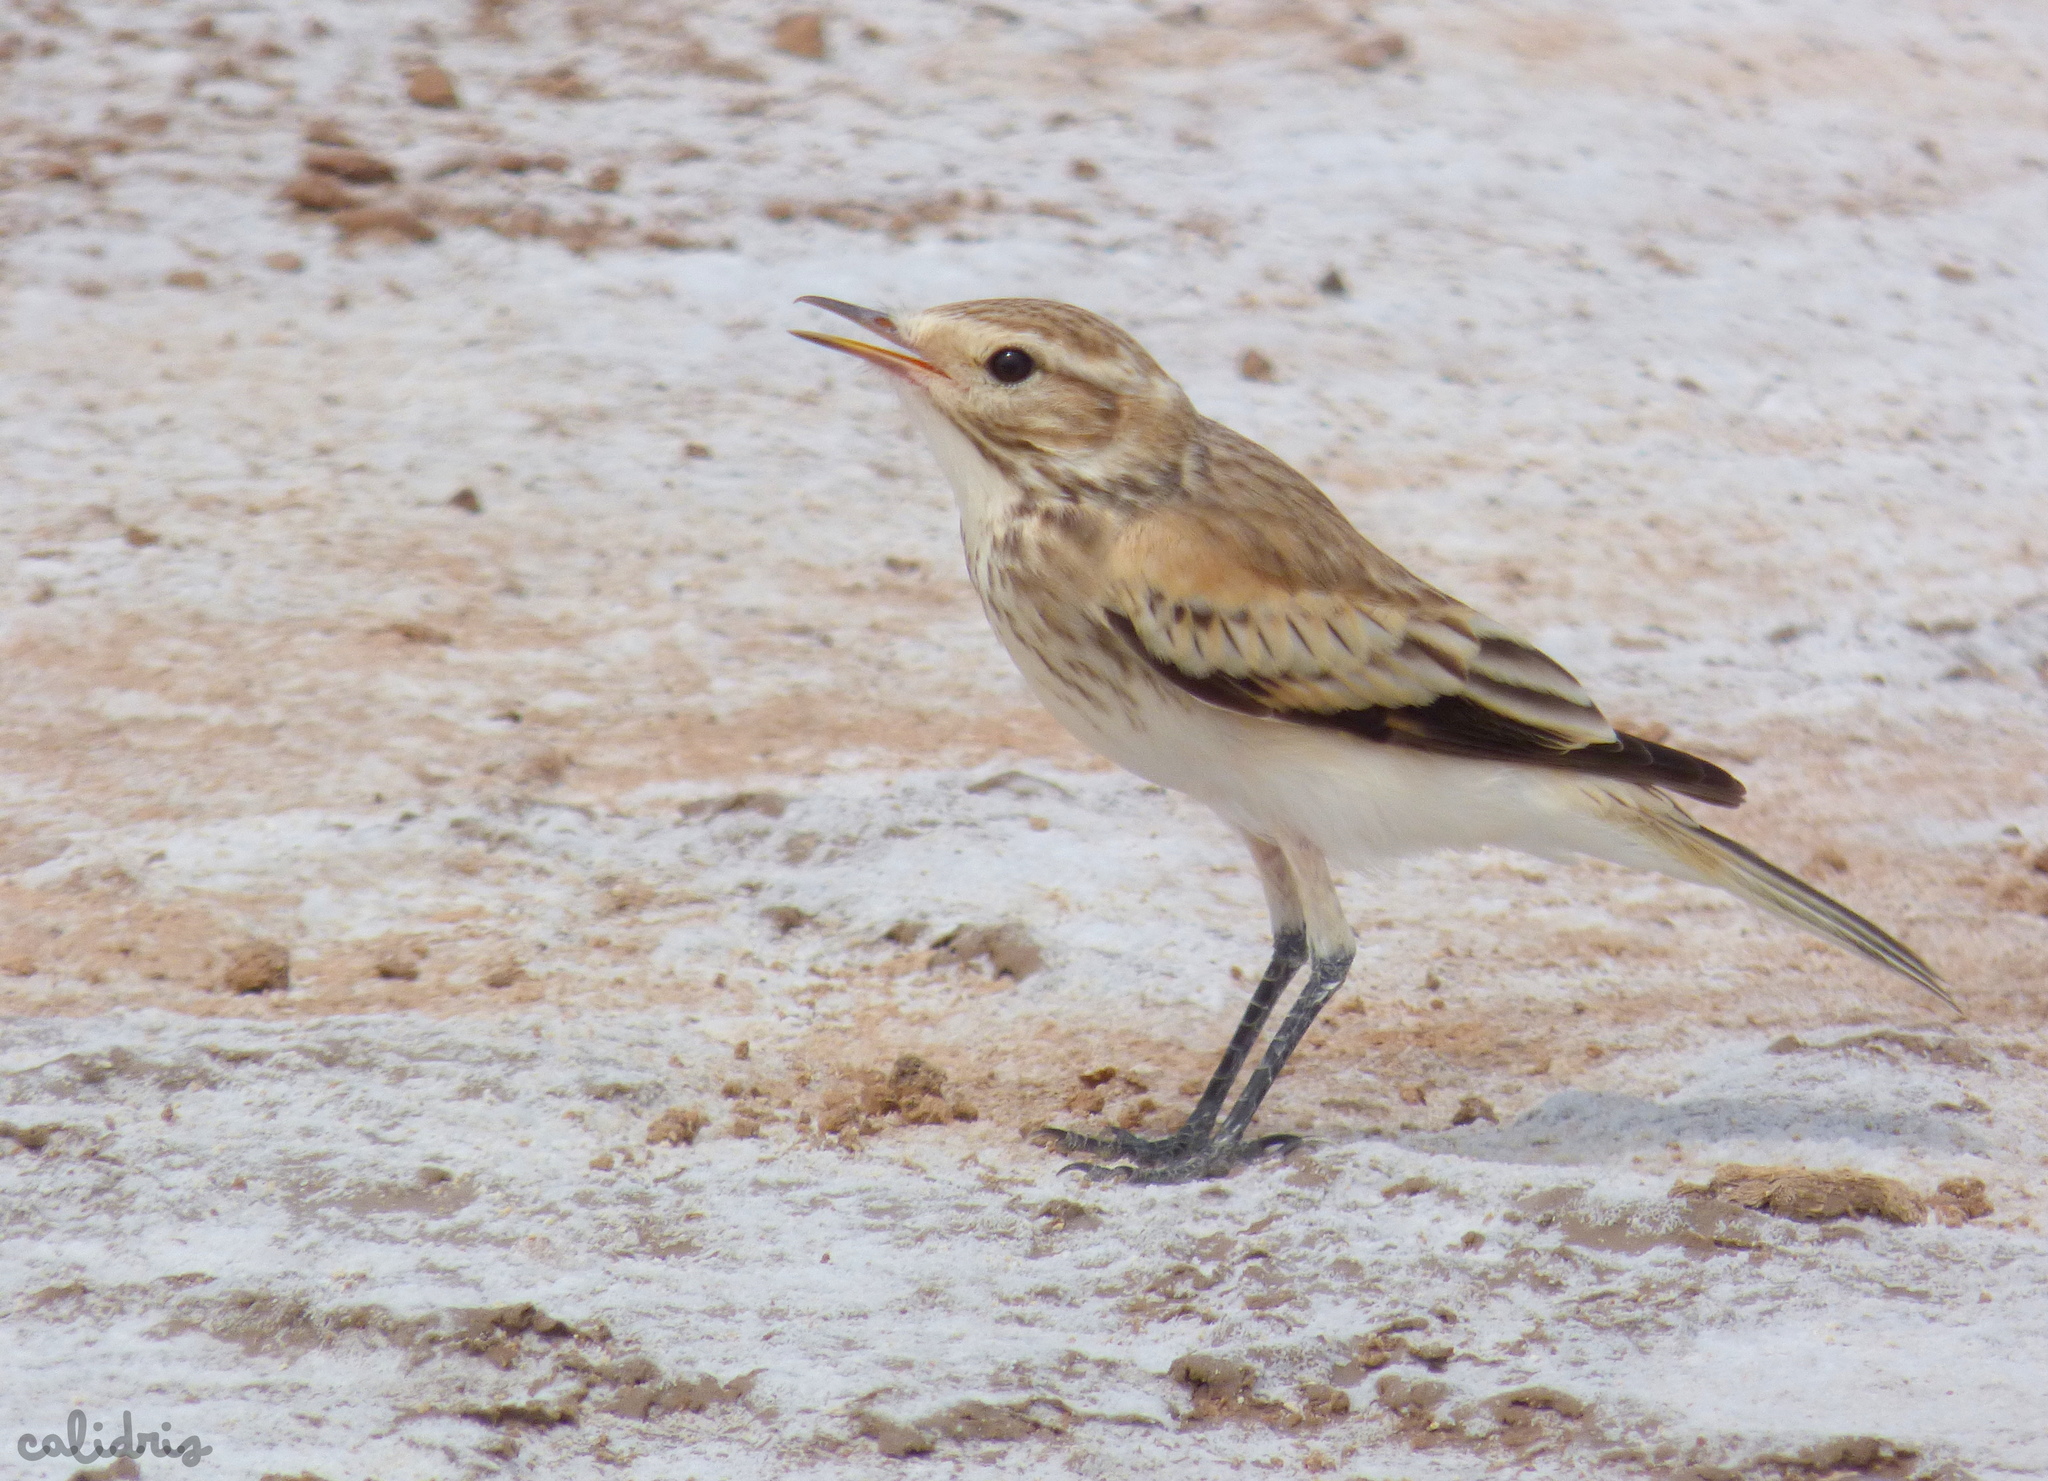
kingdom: Animalia
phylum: Chordata
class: Aves
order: Passeriformes
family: Tyrannidae
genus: Neoxolmis
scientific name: Neoxolmis salinarum
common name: Salinas monjita
